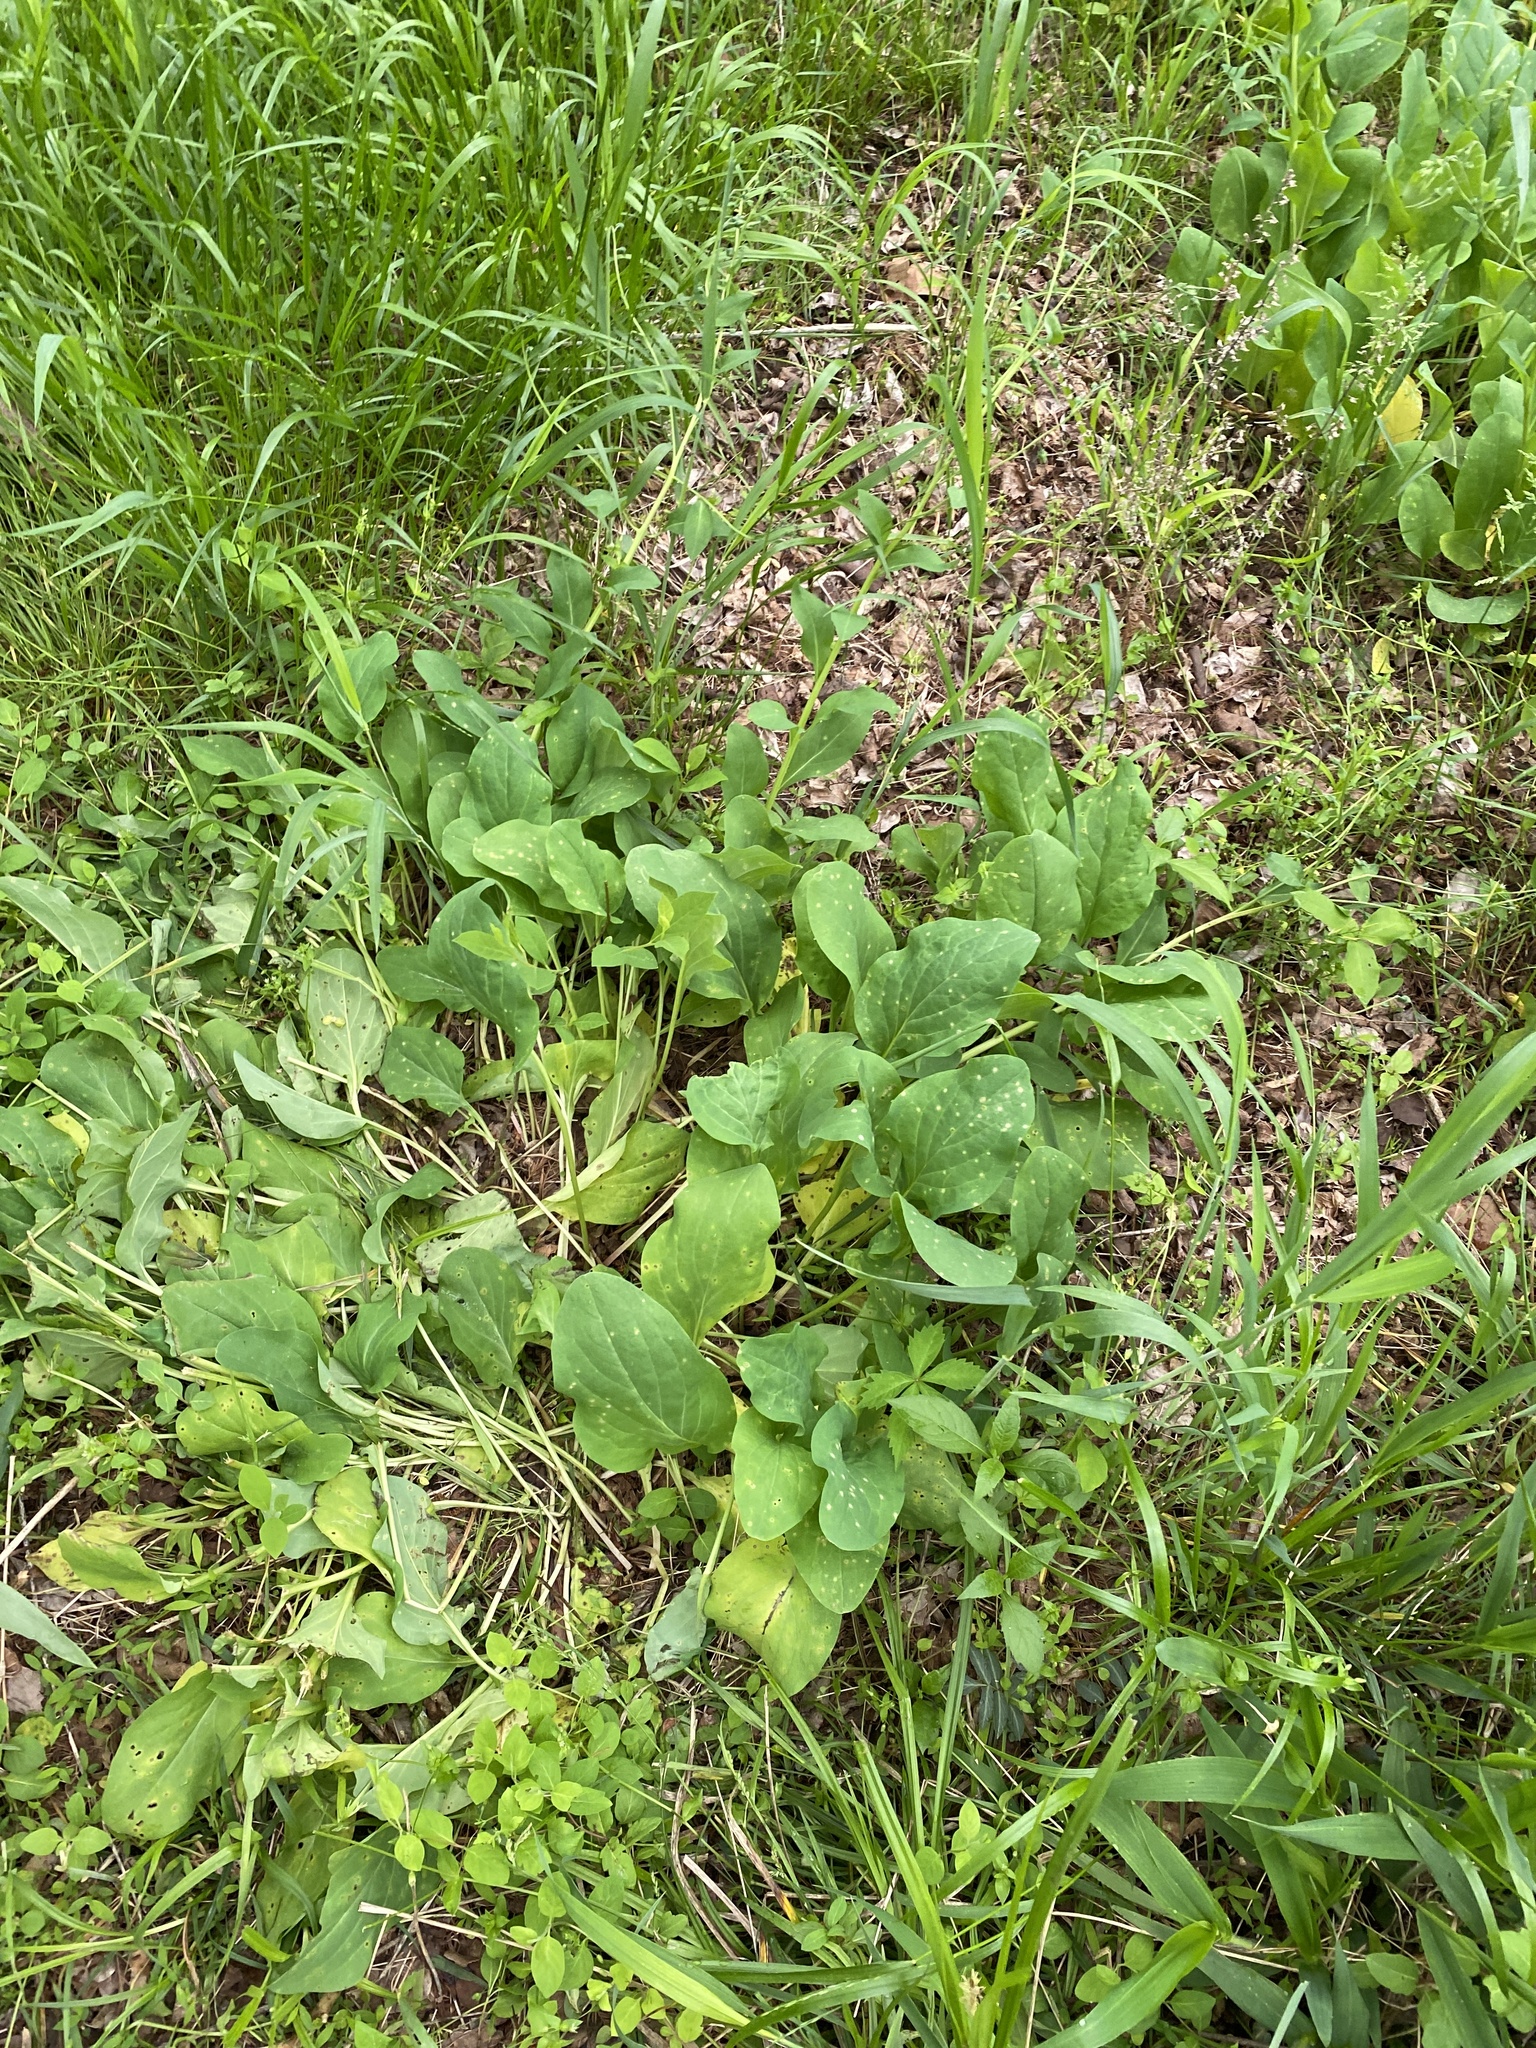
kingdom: Plantae
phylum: Tracheophyta
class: Magnoliopsida
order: Boraginales
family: Boraginaceae
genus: Mertensia
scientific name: Mertensia virginica
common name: Virginia bluebells
